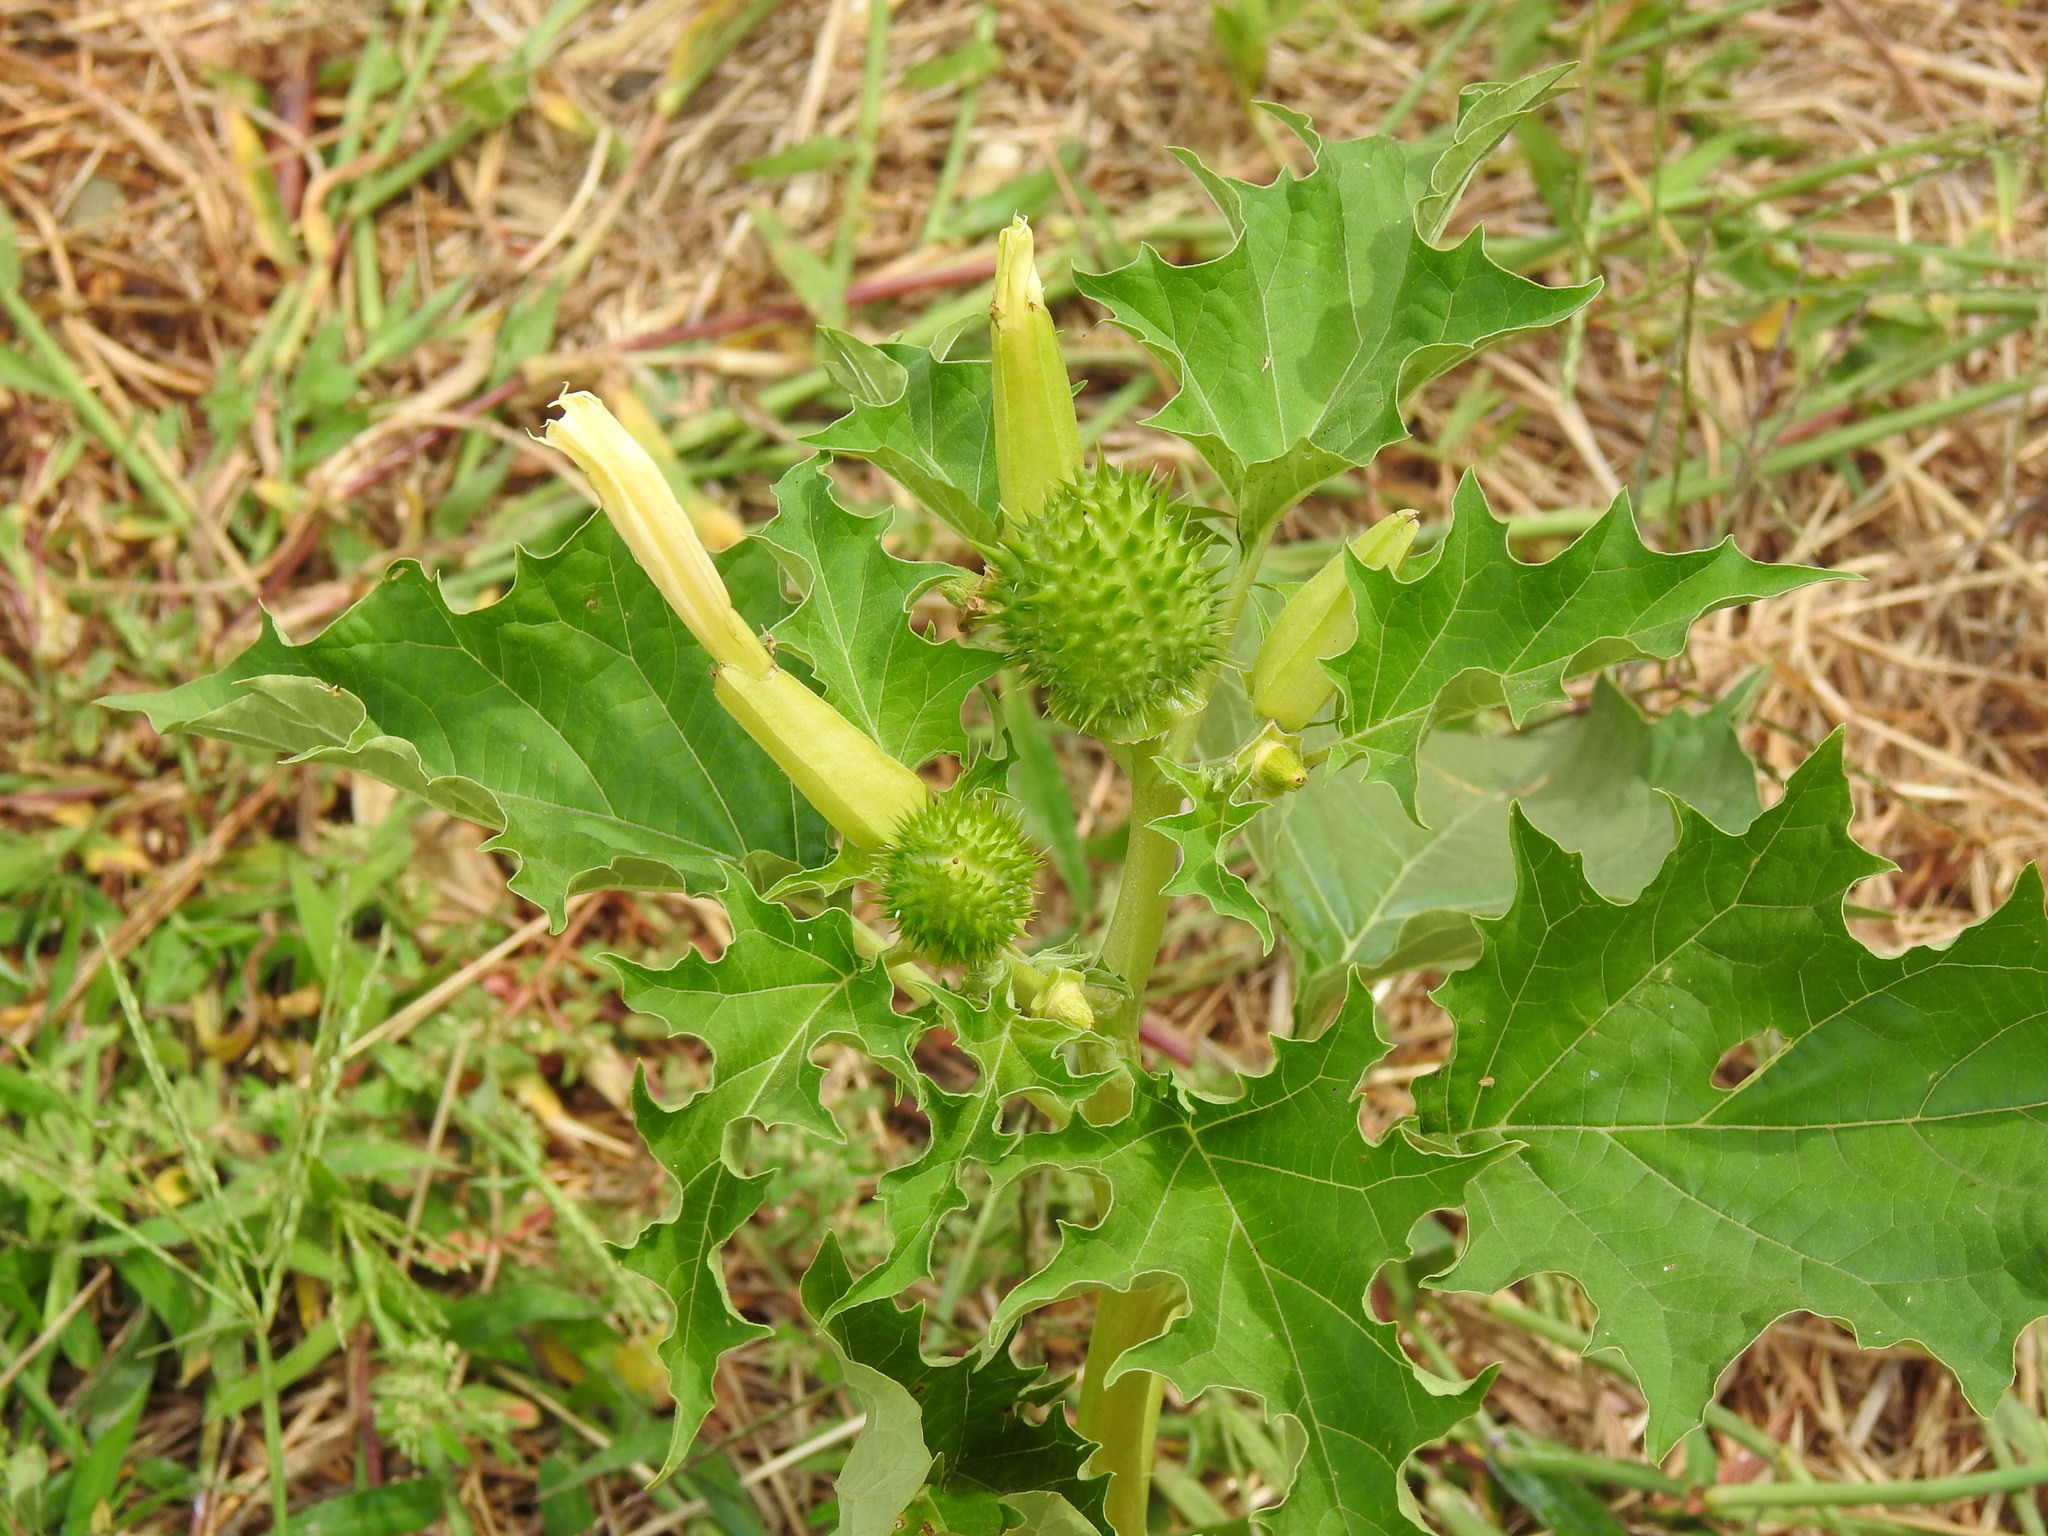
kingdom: Plantae
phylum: Tracheophyta
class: Magnoliopsida
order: Solanales
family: Solanaceae
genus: Datura
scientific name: Datura stramonium
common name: Thorn-apple
